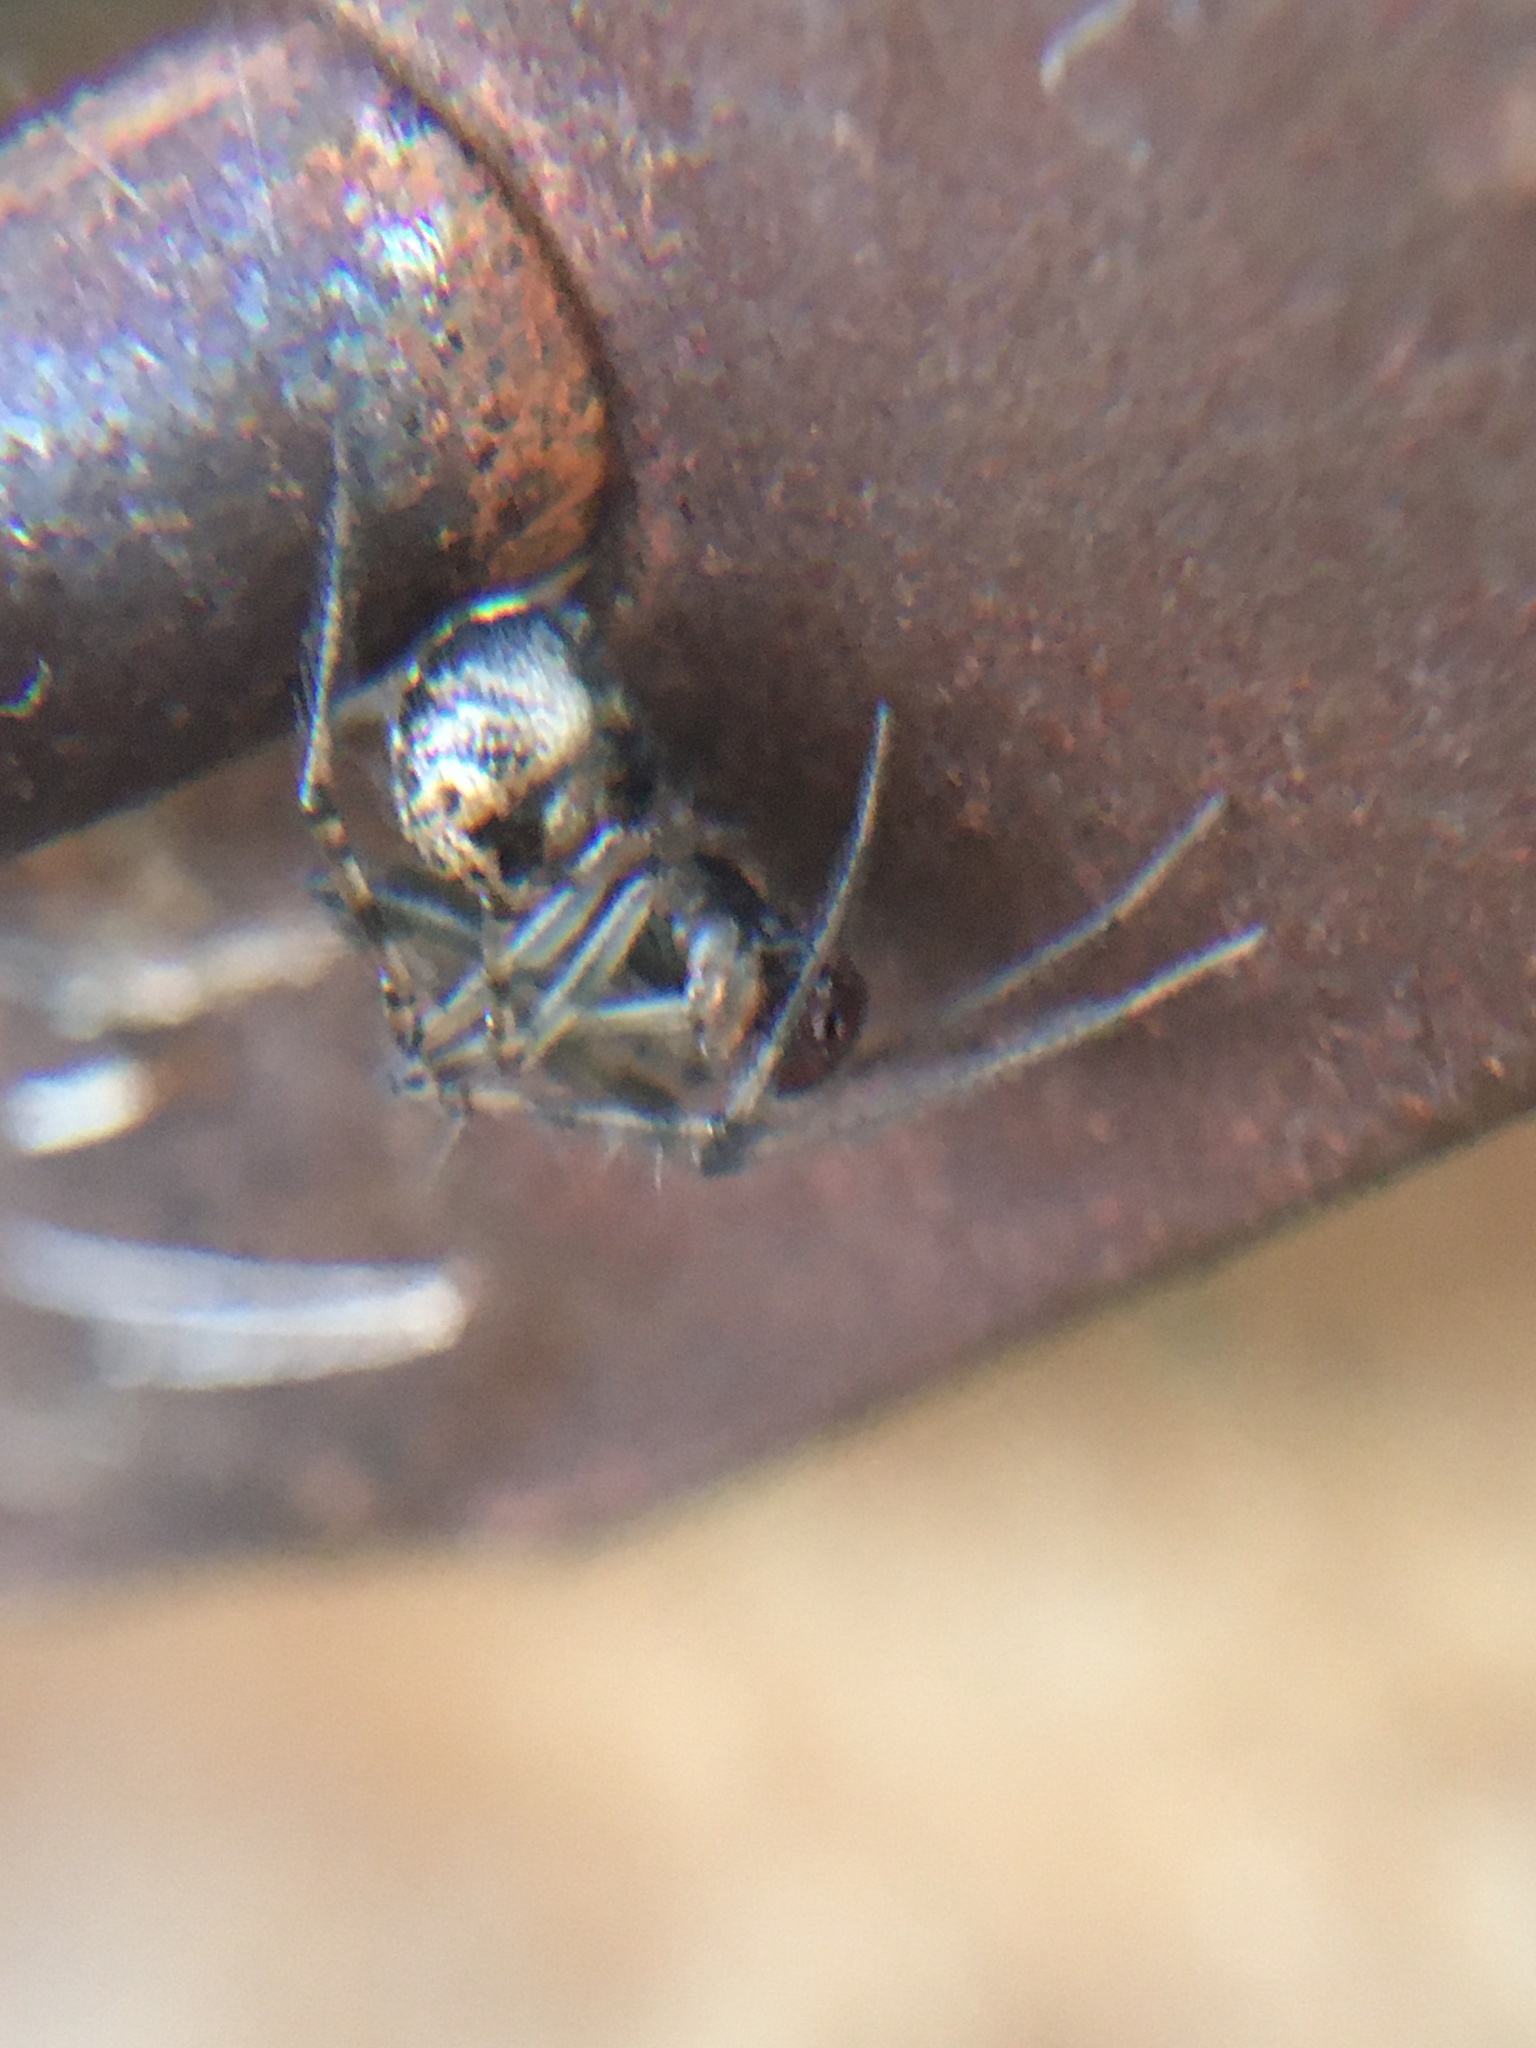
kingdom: Animalia
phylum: Arthropoda
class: Arachnida
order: Araneae
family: Theridiidae
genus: Parasteatoda
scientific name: Parasteatoda tepidariorum
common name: Common house spider
